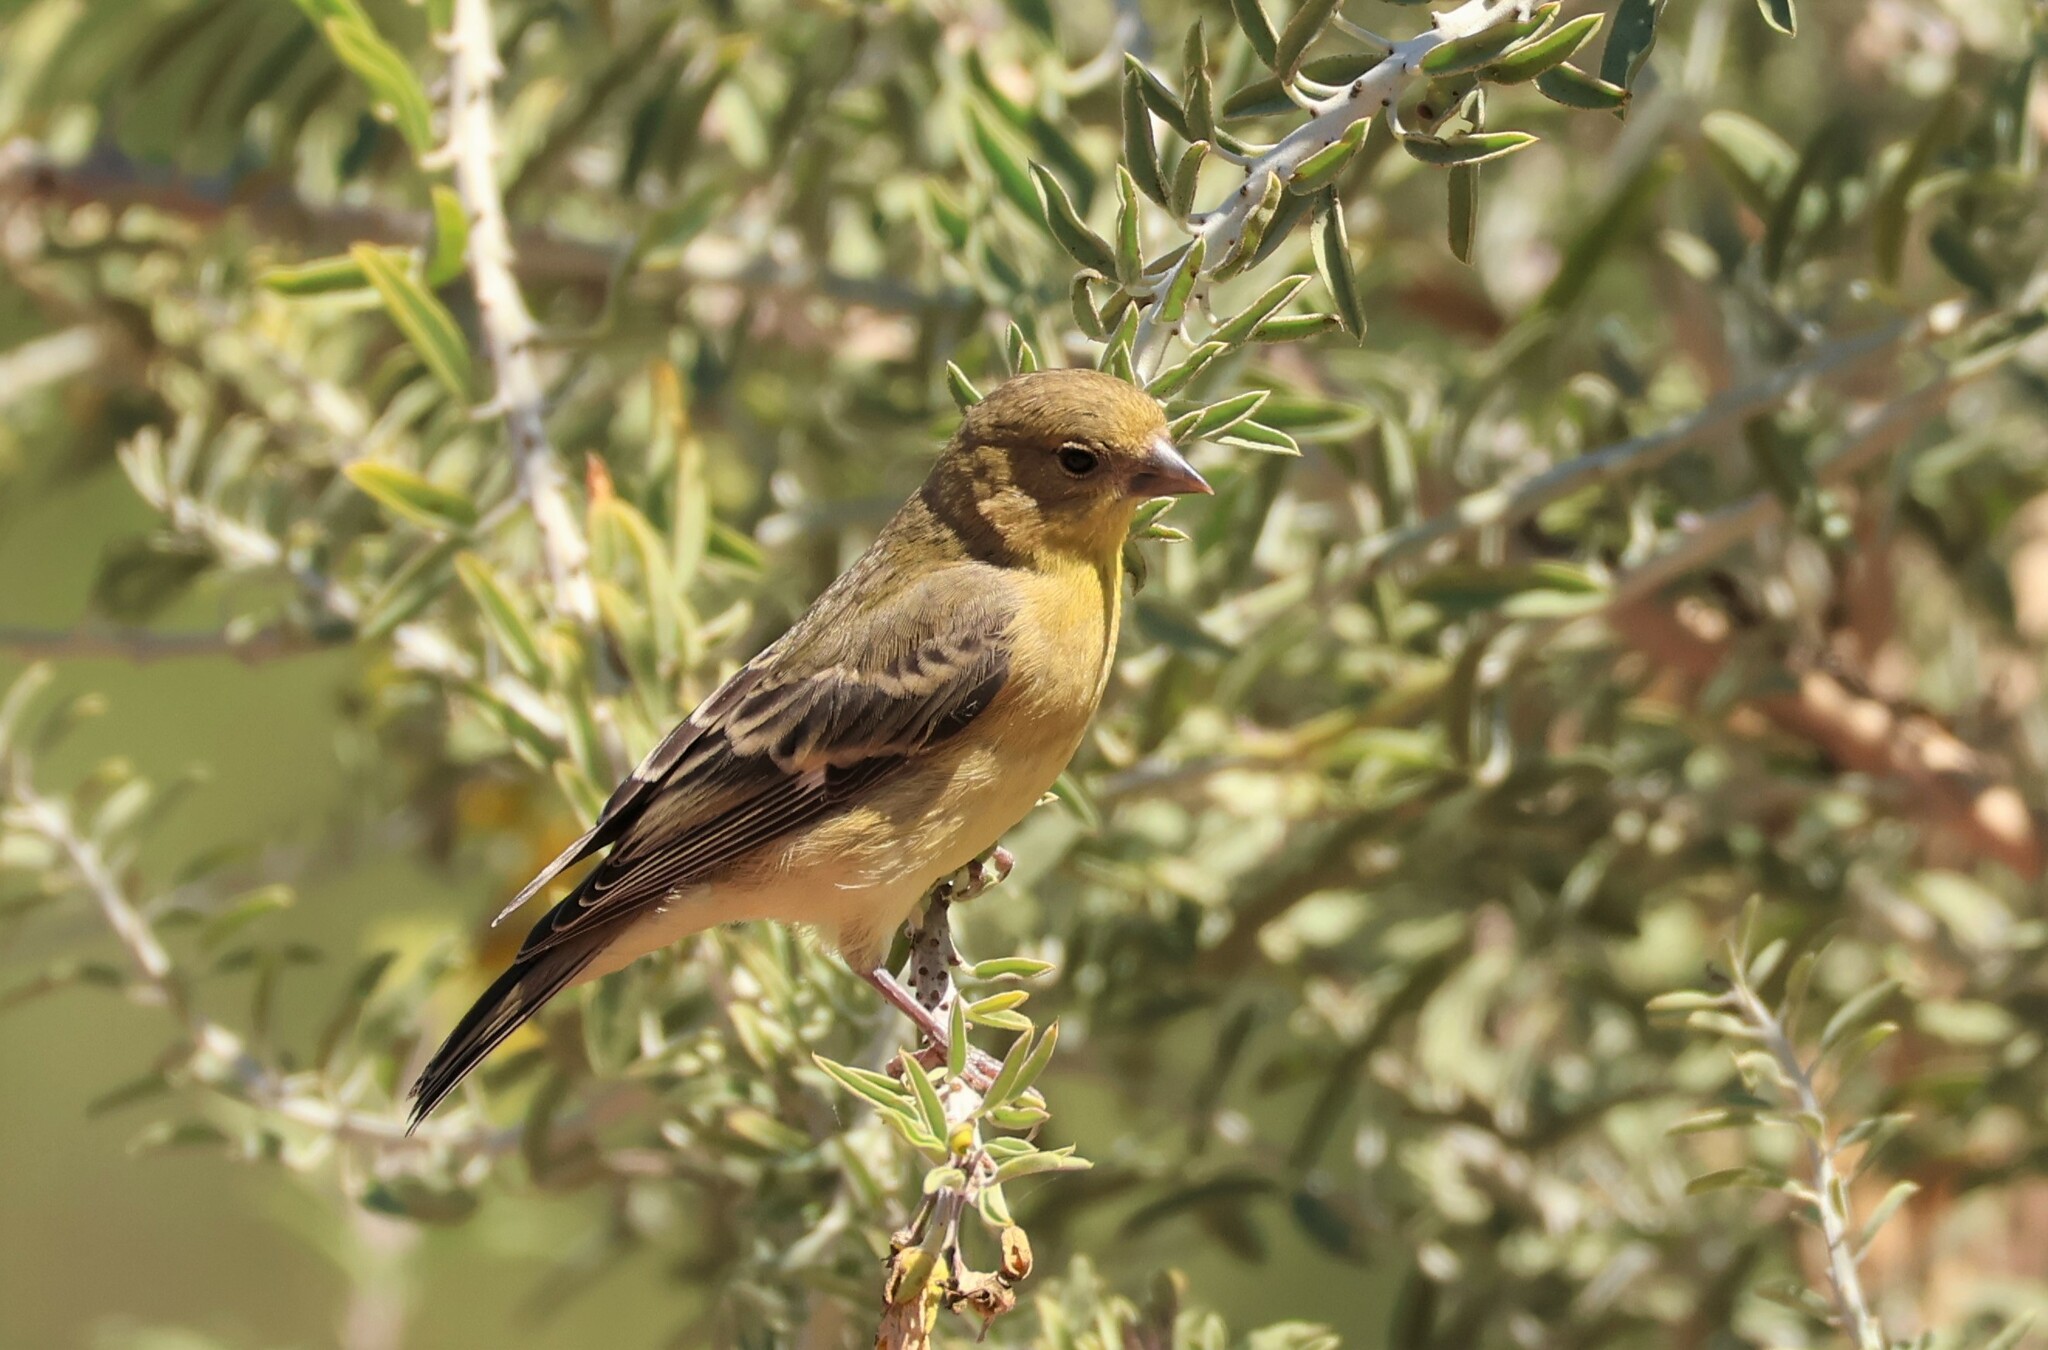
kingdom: Animalia
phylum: Chordata
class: Aves
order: Passeriformes
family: Fringillidae
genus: Spinus
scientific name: Spinus psaltria
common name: Lesser goldfinch
